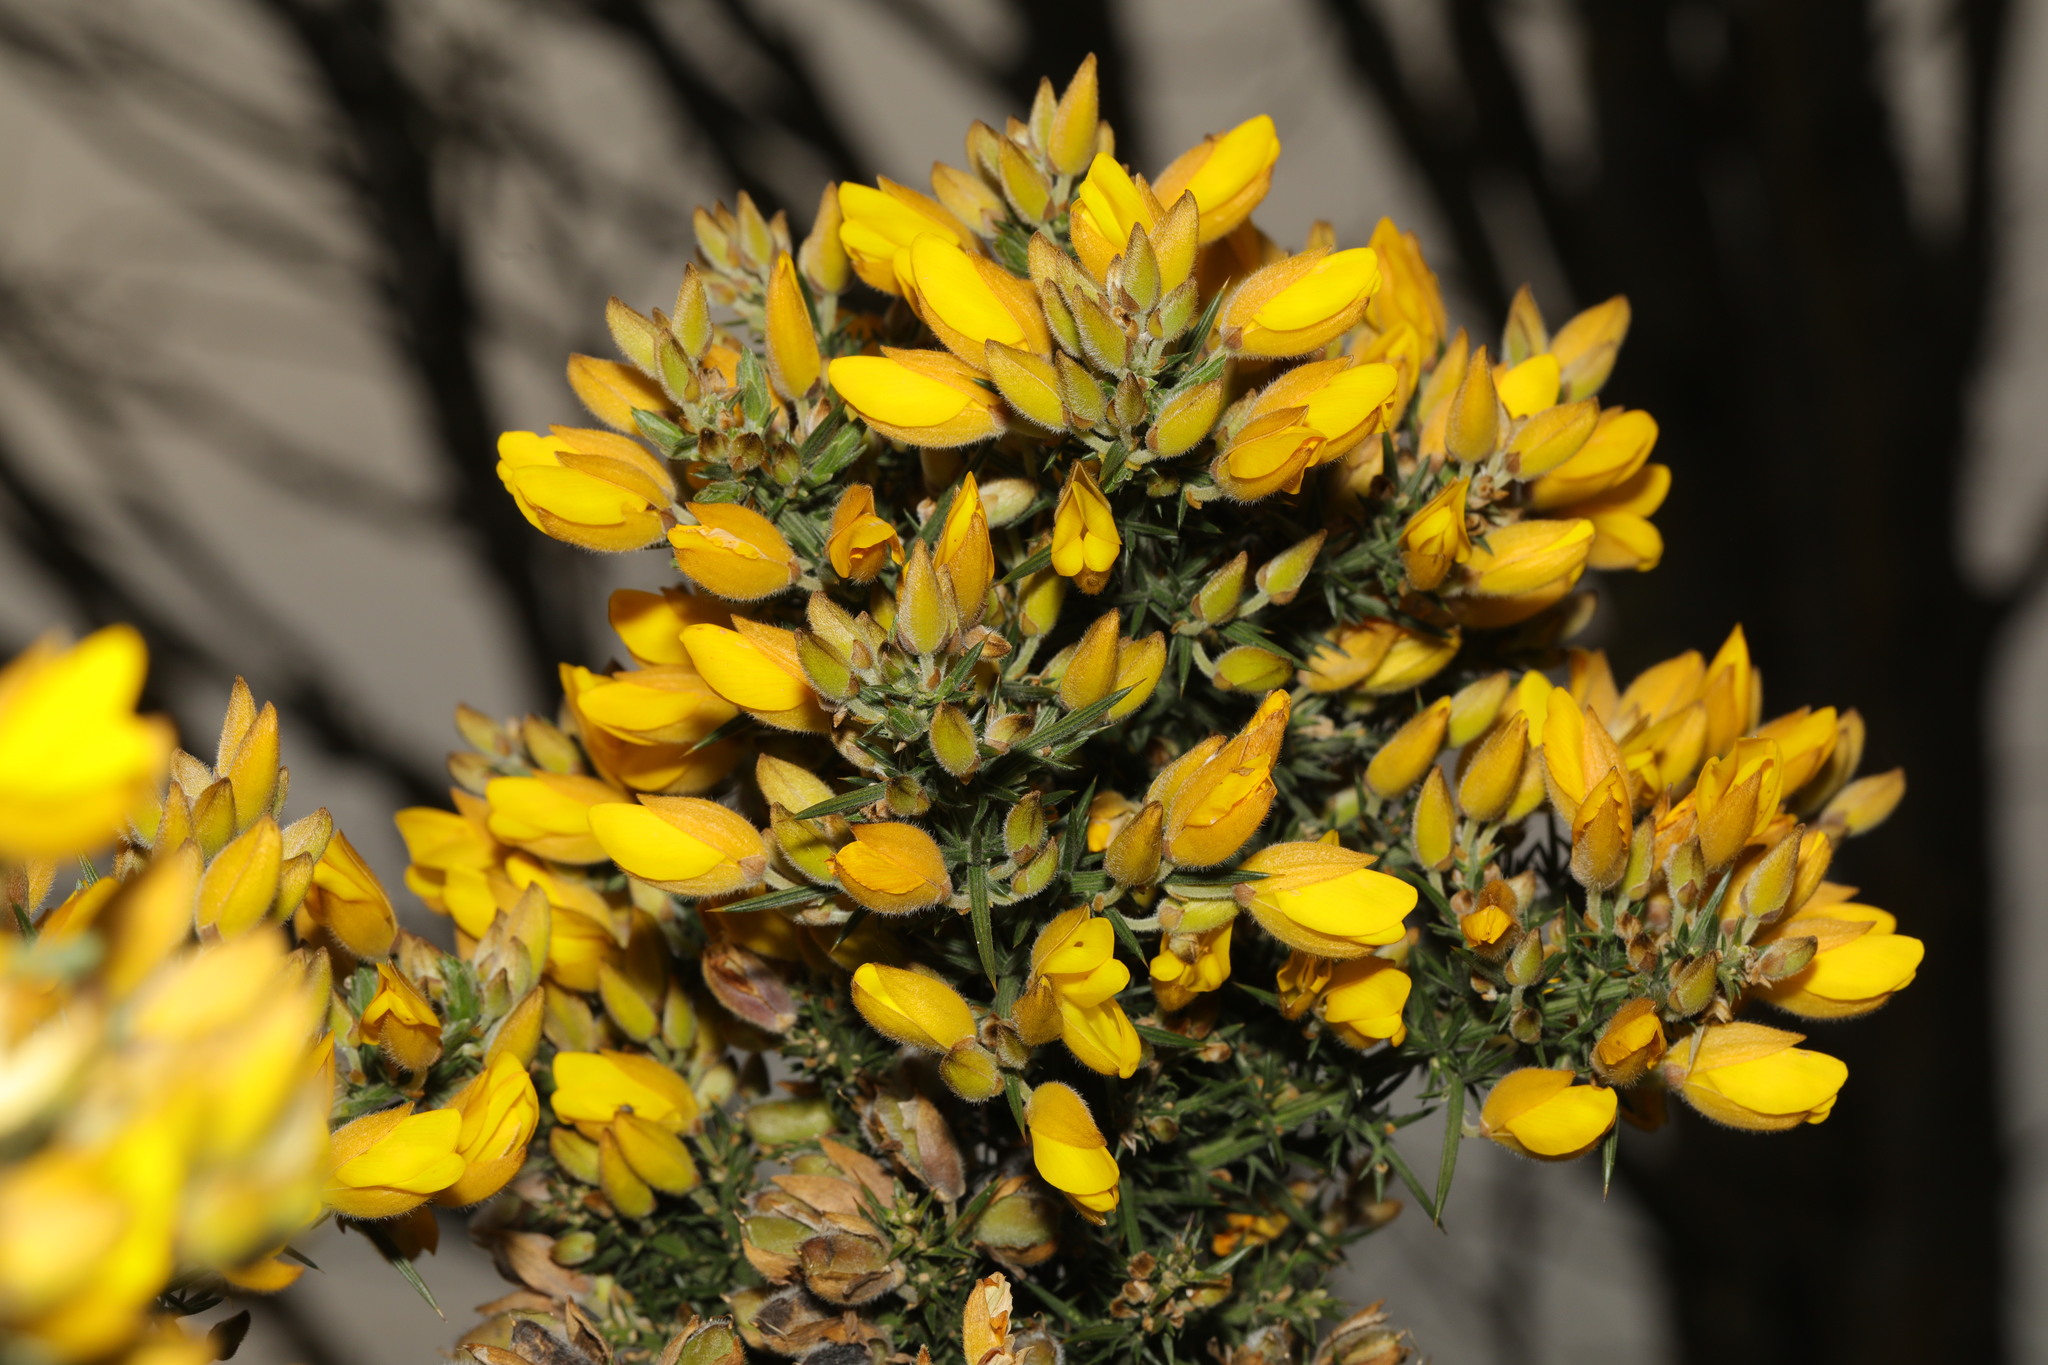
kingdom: Plantae
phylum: Tracheophyta
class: Magnoliopsida
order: Fabales
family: Fabaceae
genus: Ulex
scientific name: Ulex europaeus
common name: Common gorse
